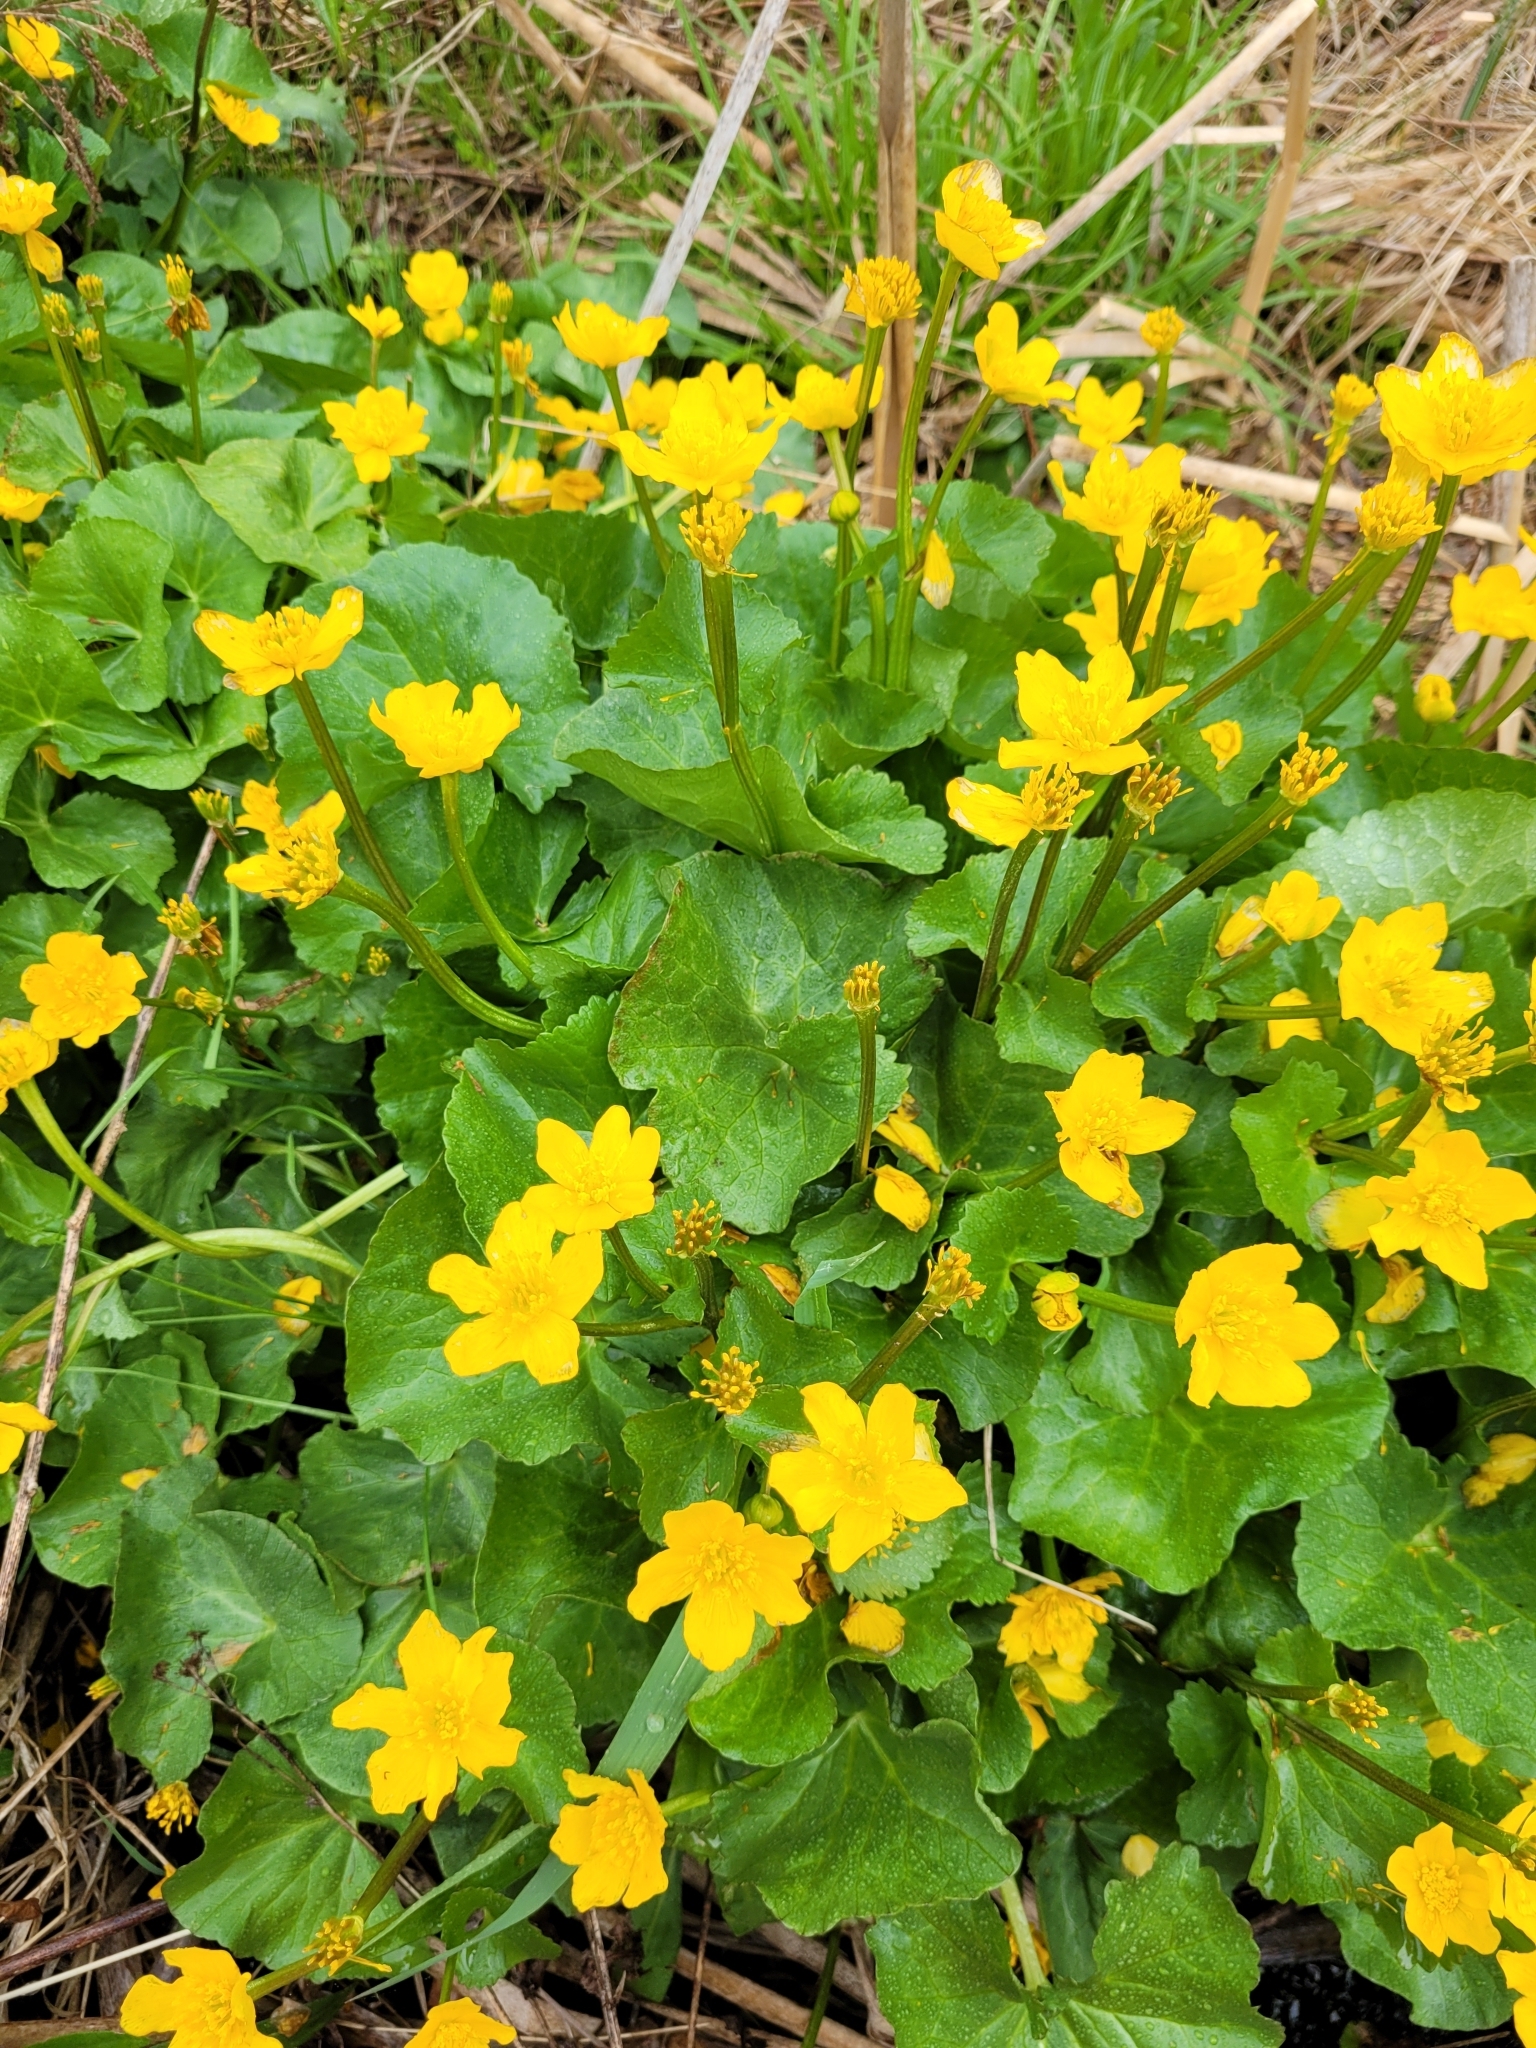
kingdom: Plantae
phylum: Tracheophyta
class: Magnoliopsida
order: Ranunculales
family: Ranunculaceae
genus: Caltha
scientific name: Caltha palustris
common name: Marsh marigold
